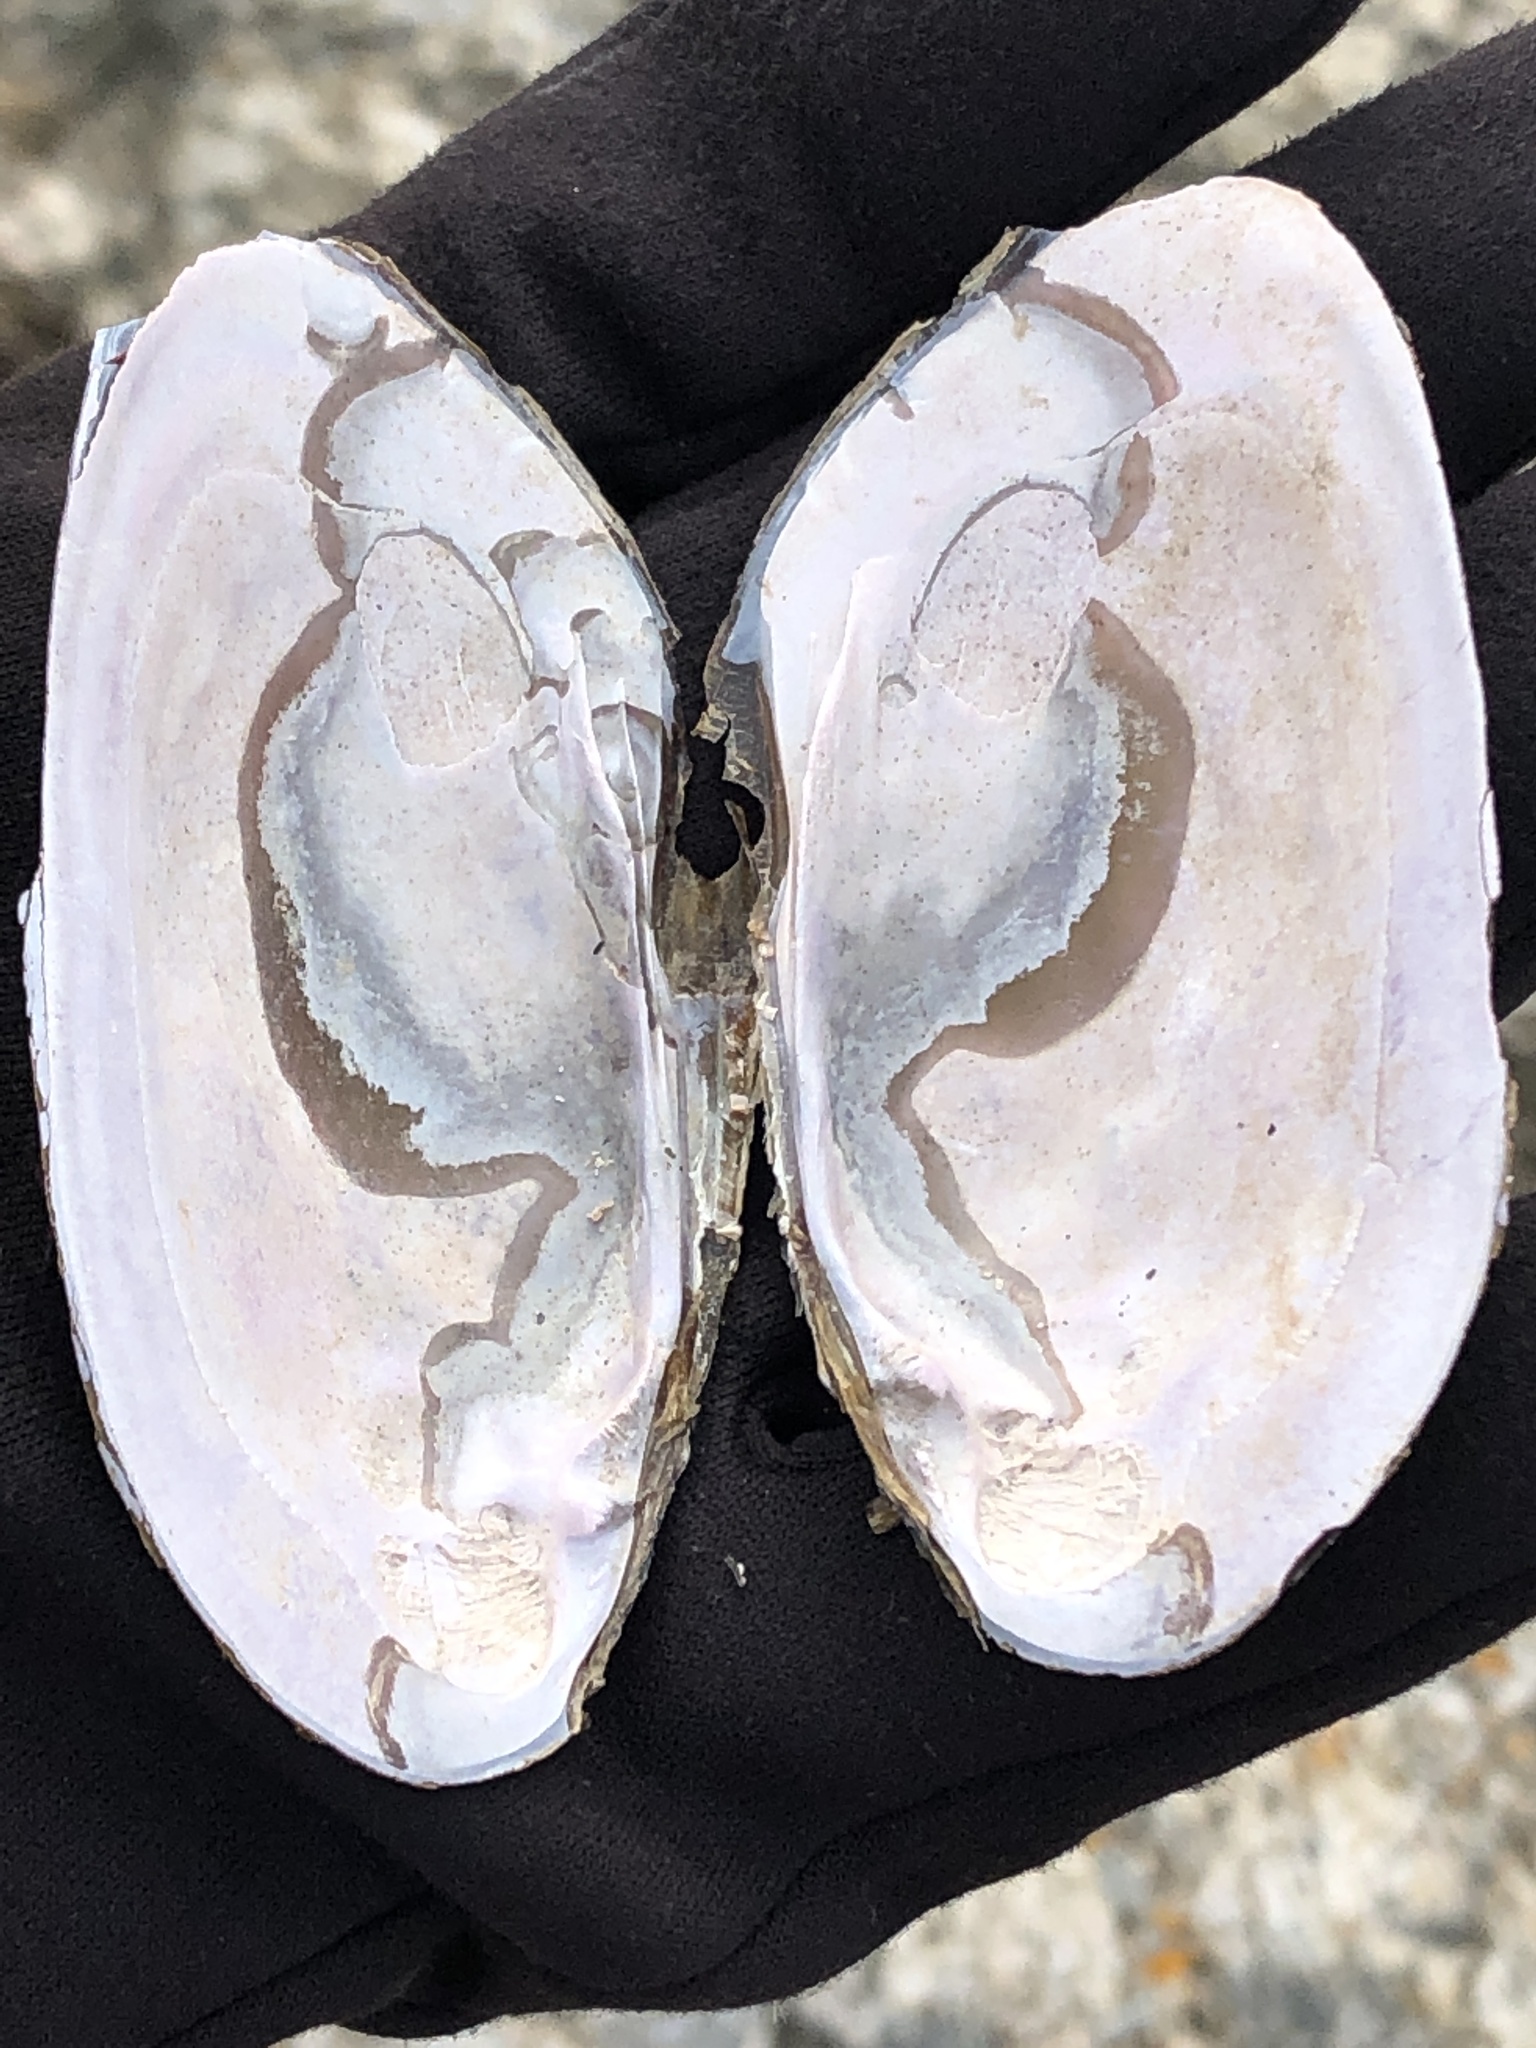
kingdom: Animalia
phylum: Mollusca
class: Bivalvia
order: Unionida
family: Unionidae
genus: Elliptio
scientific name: Elliptio complanata
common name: Eastern elliptio
